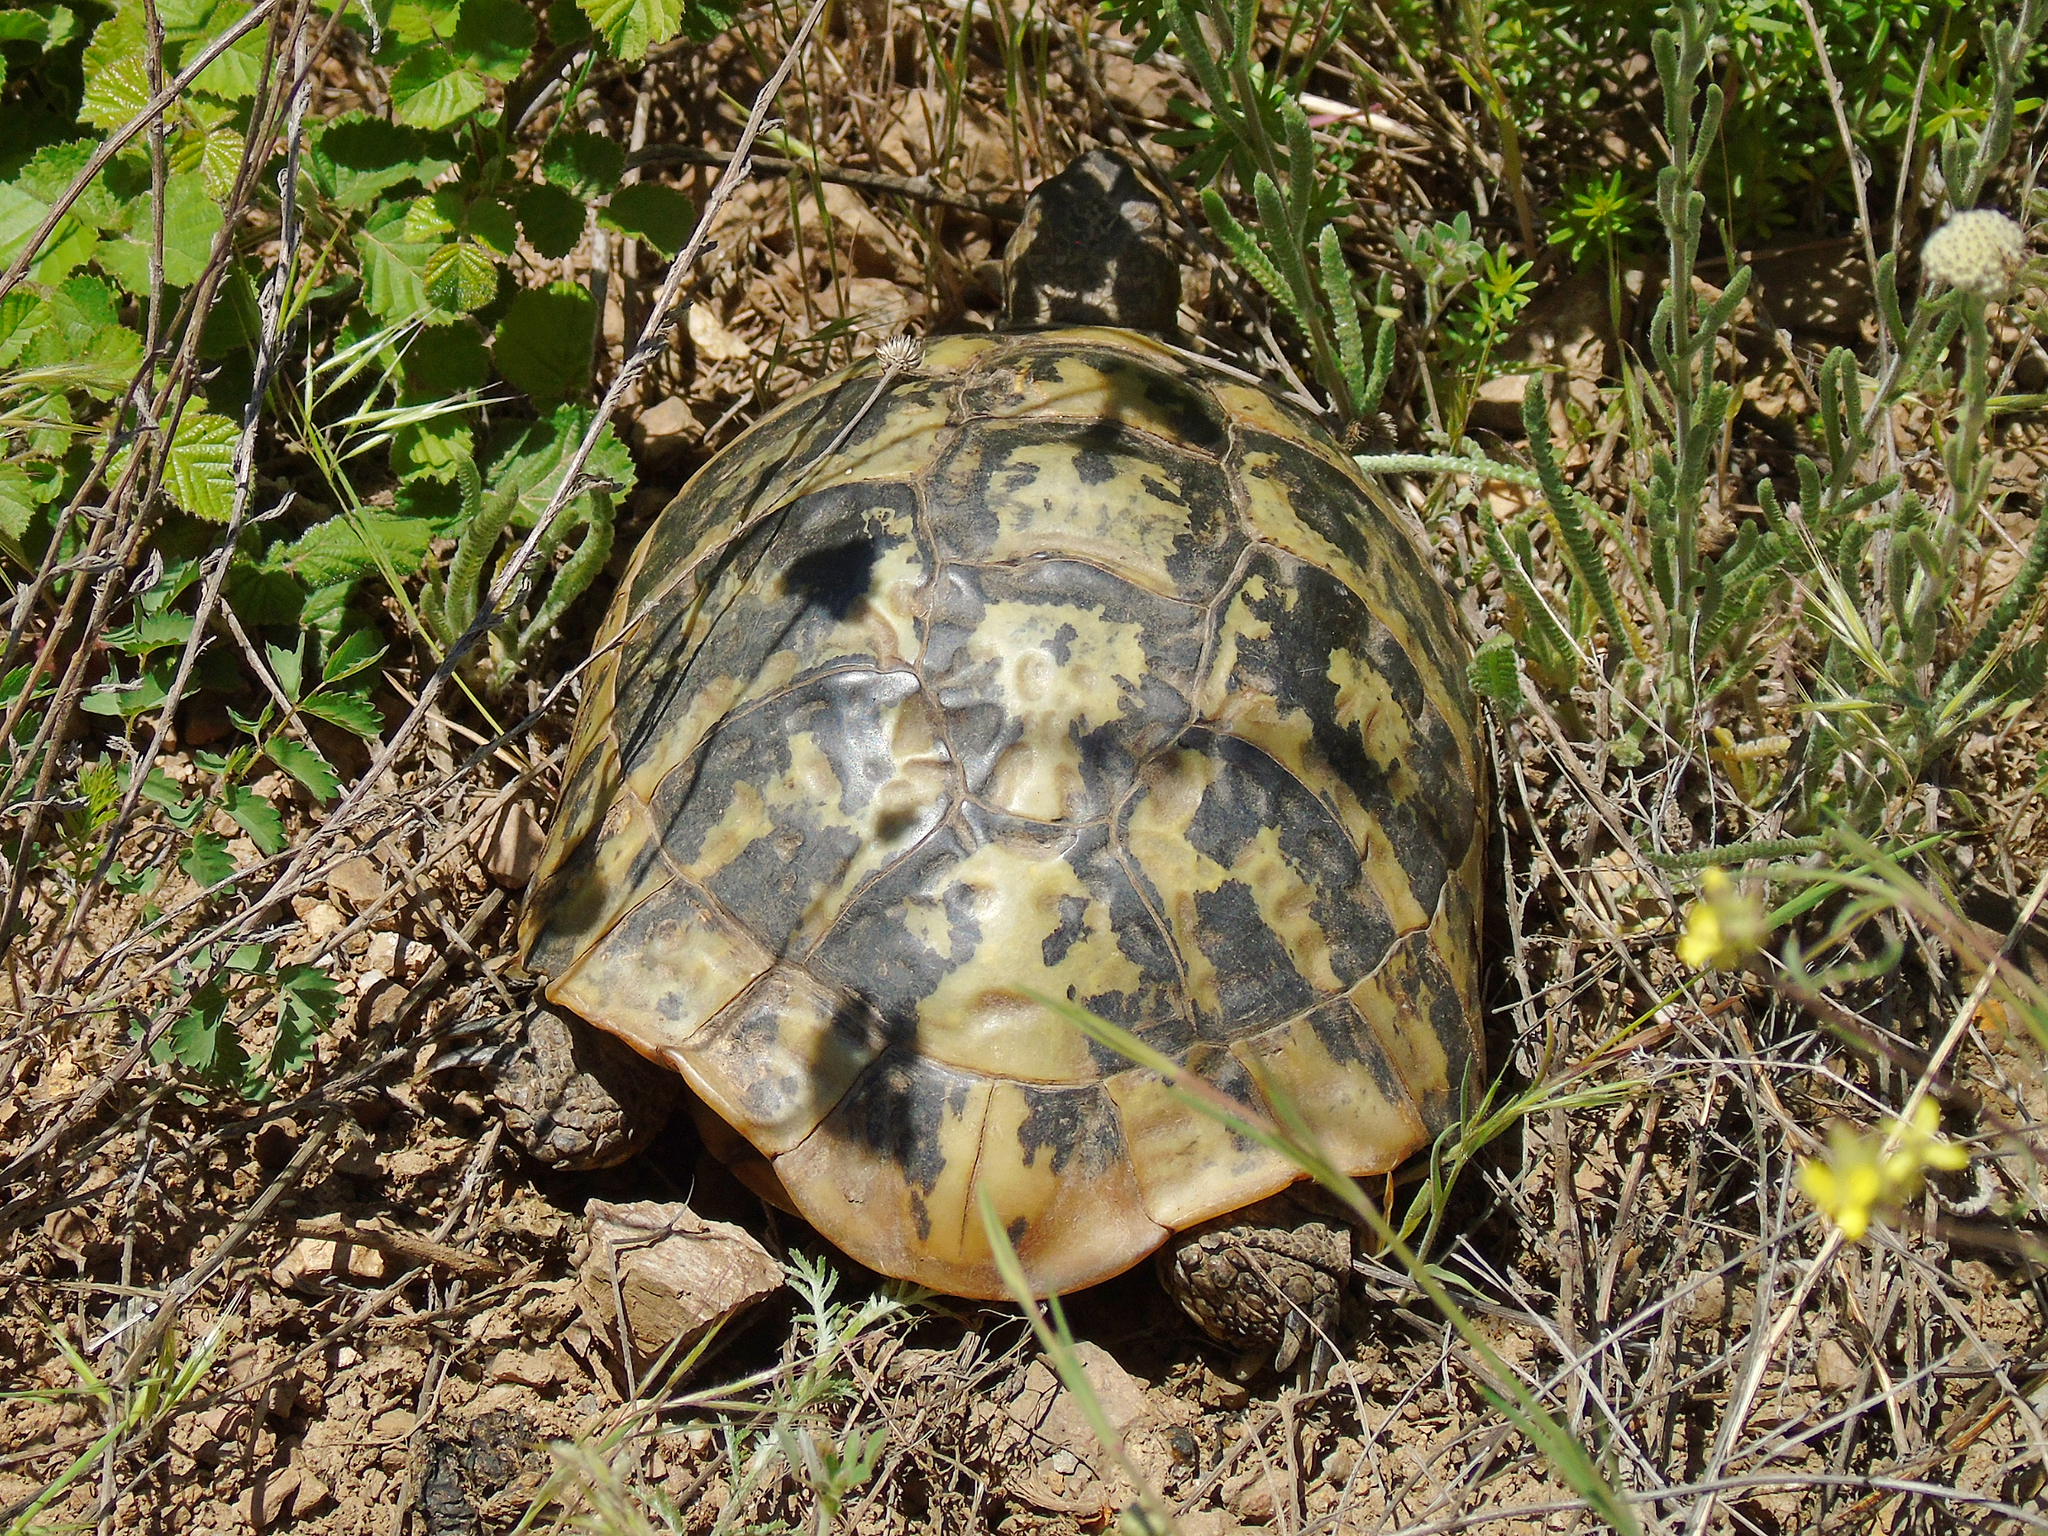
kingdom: Animalia
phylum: Chordata
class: Testudines
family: Testudinidae
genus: Testudo
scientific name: Testudo hermanni
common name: Hermann's tortoise
